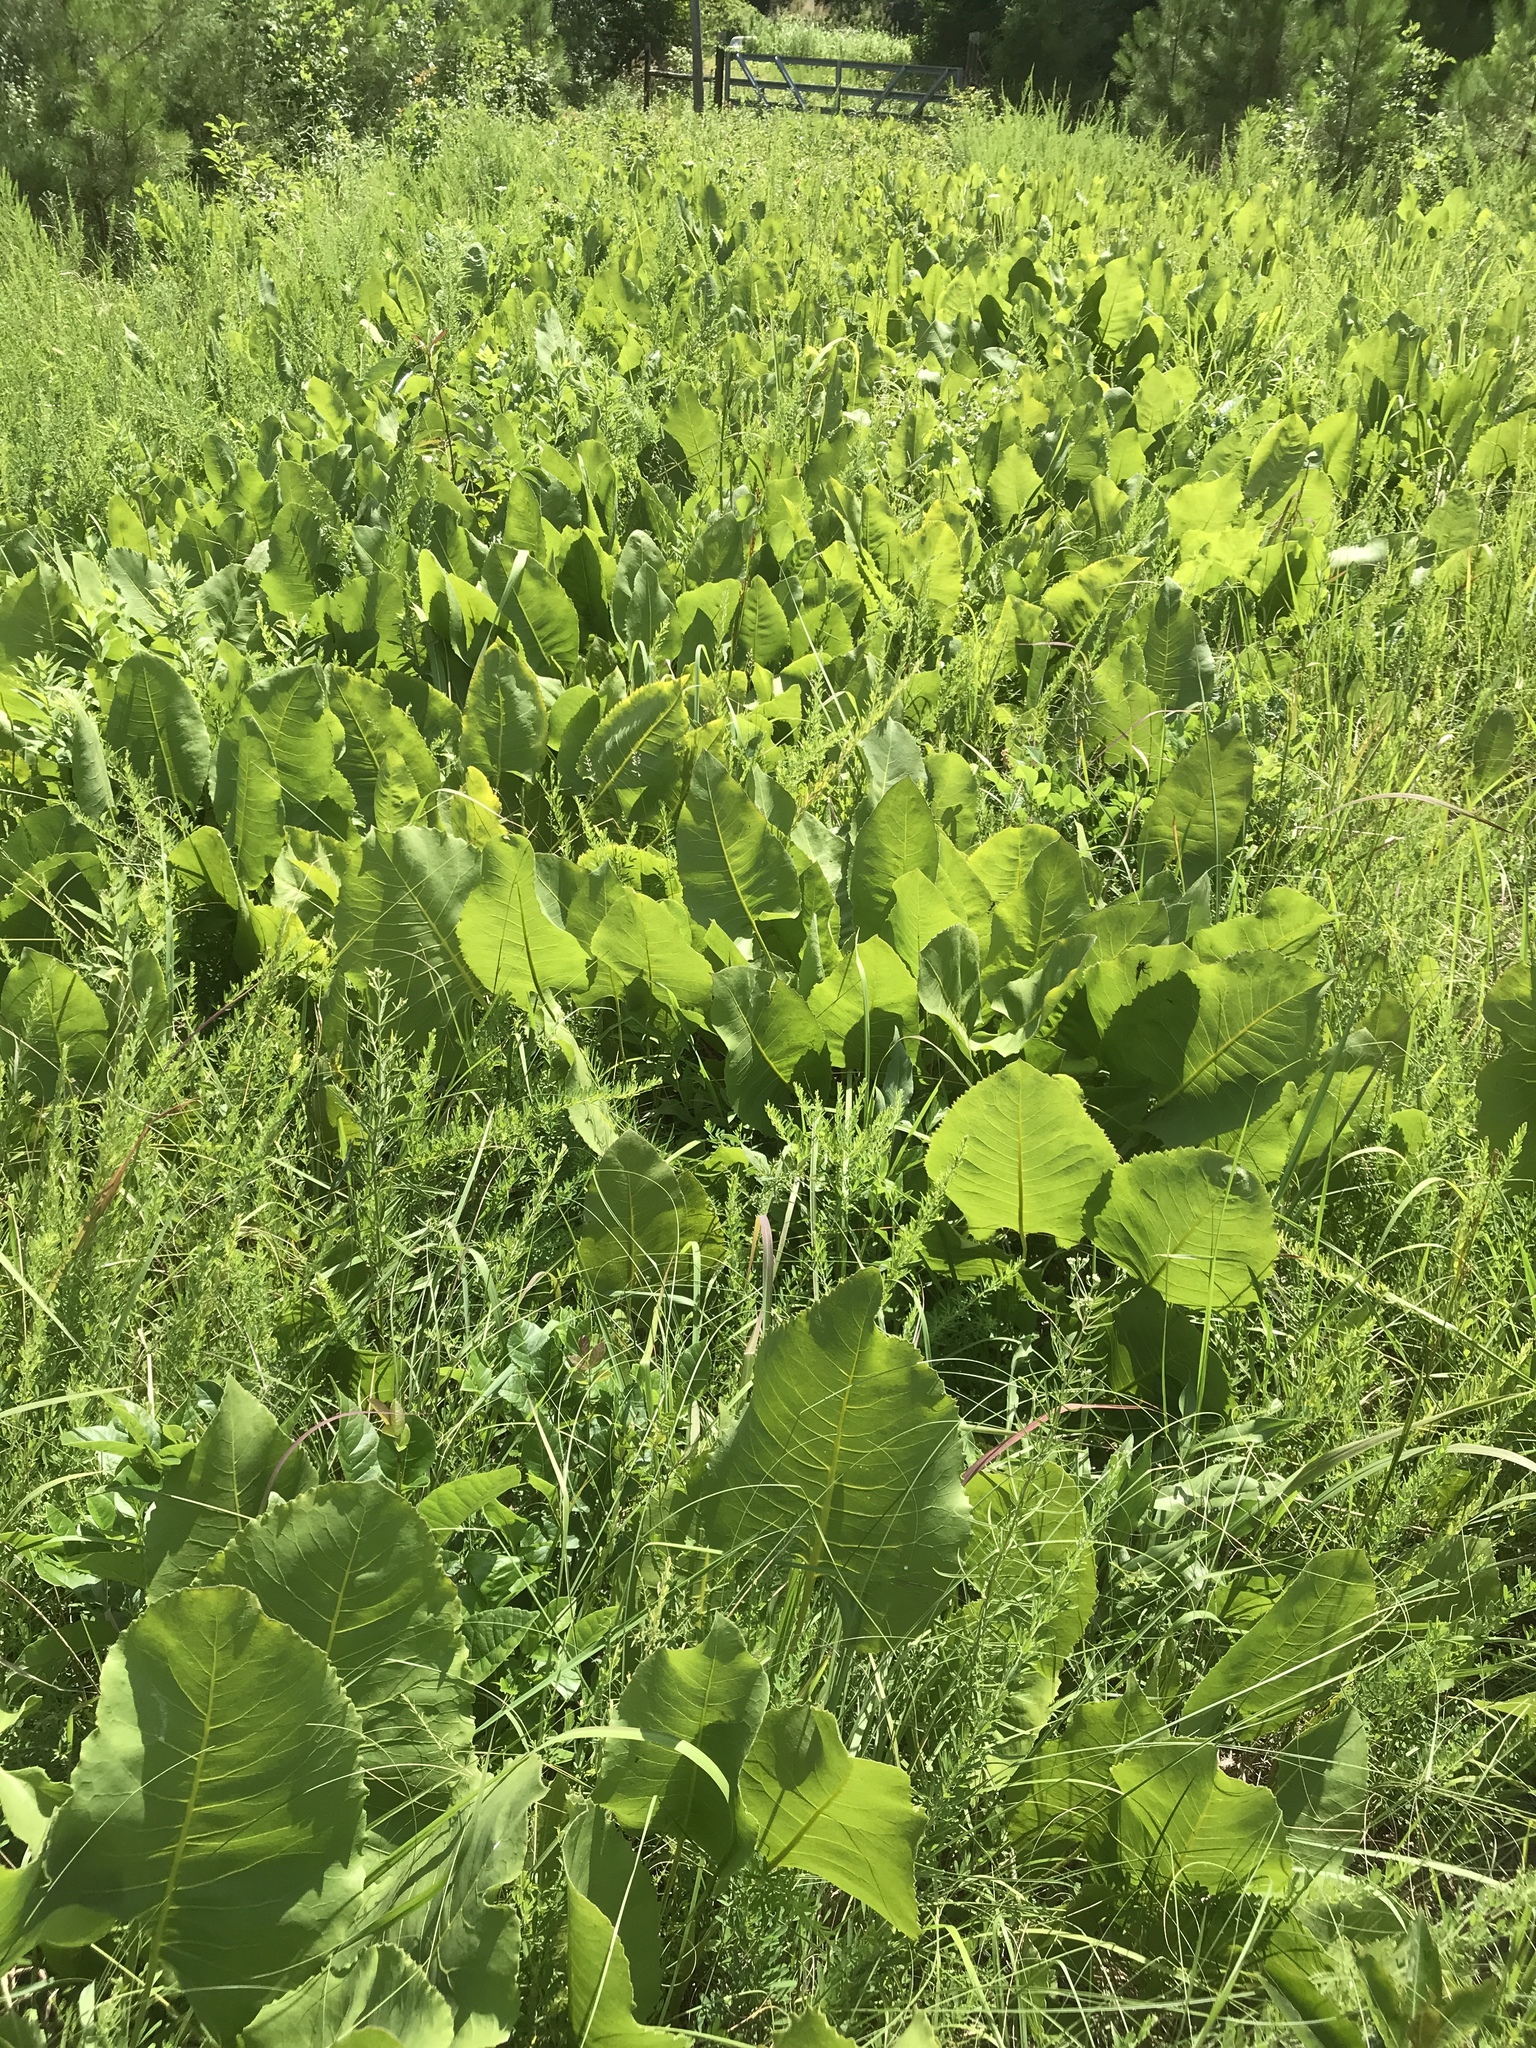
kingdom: Plantae
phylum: Tracheophyta
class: Magnoliopsida
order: Asterales
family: Asteraceae
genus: Silphium
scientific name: Silphium terebinthinaceum
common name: Basal-leaf rosinweed
